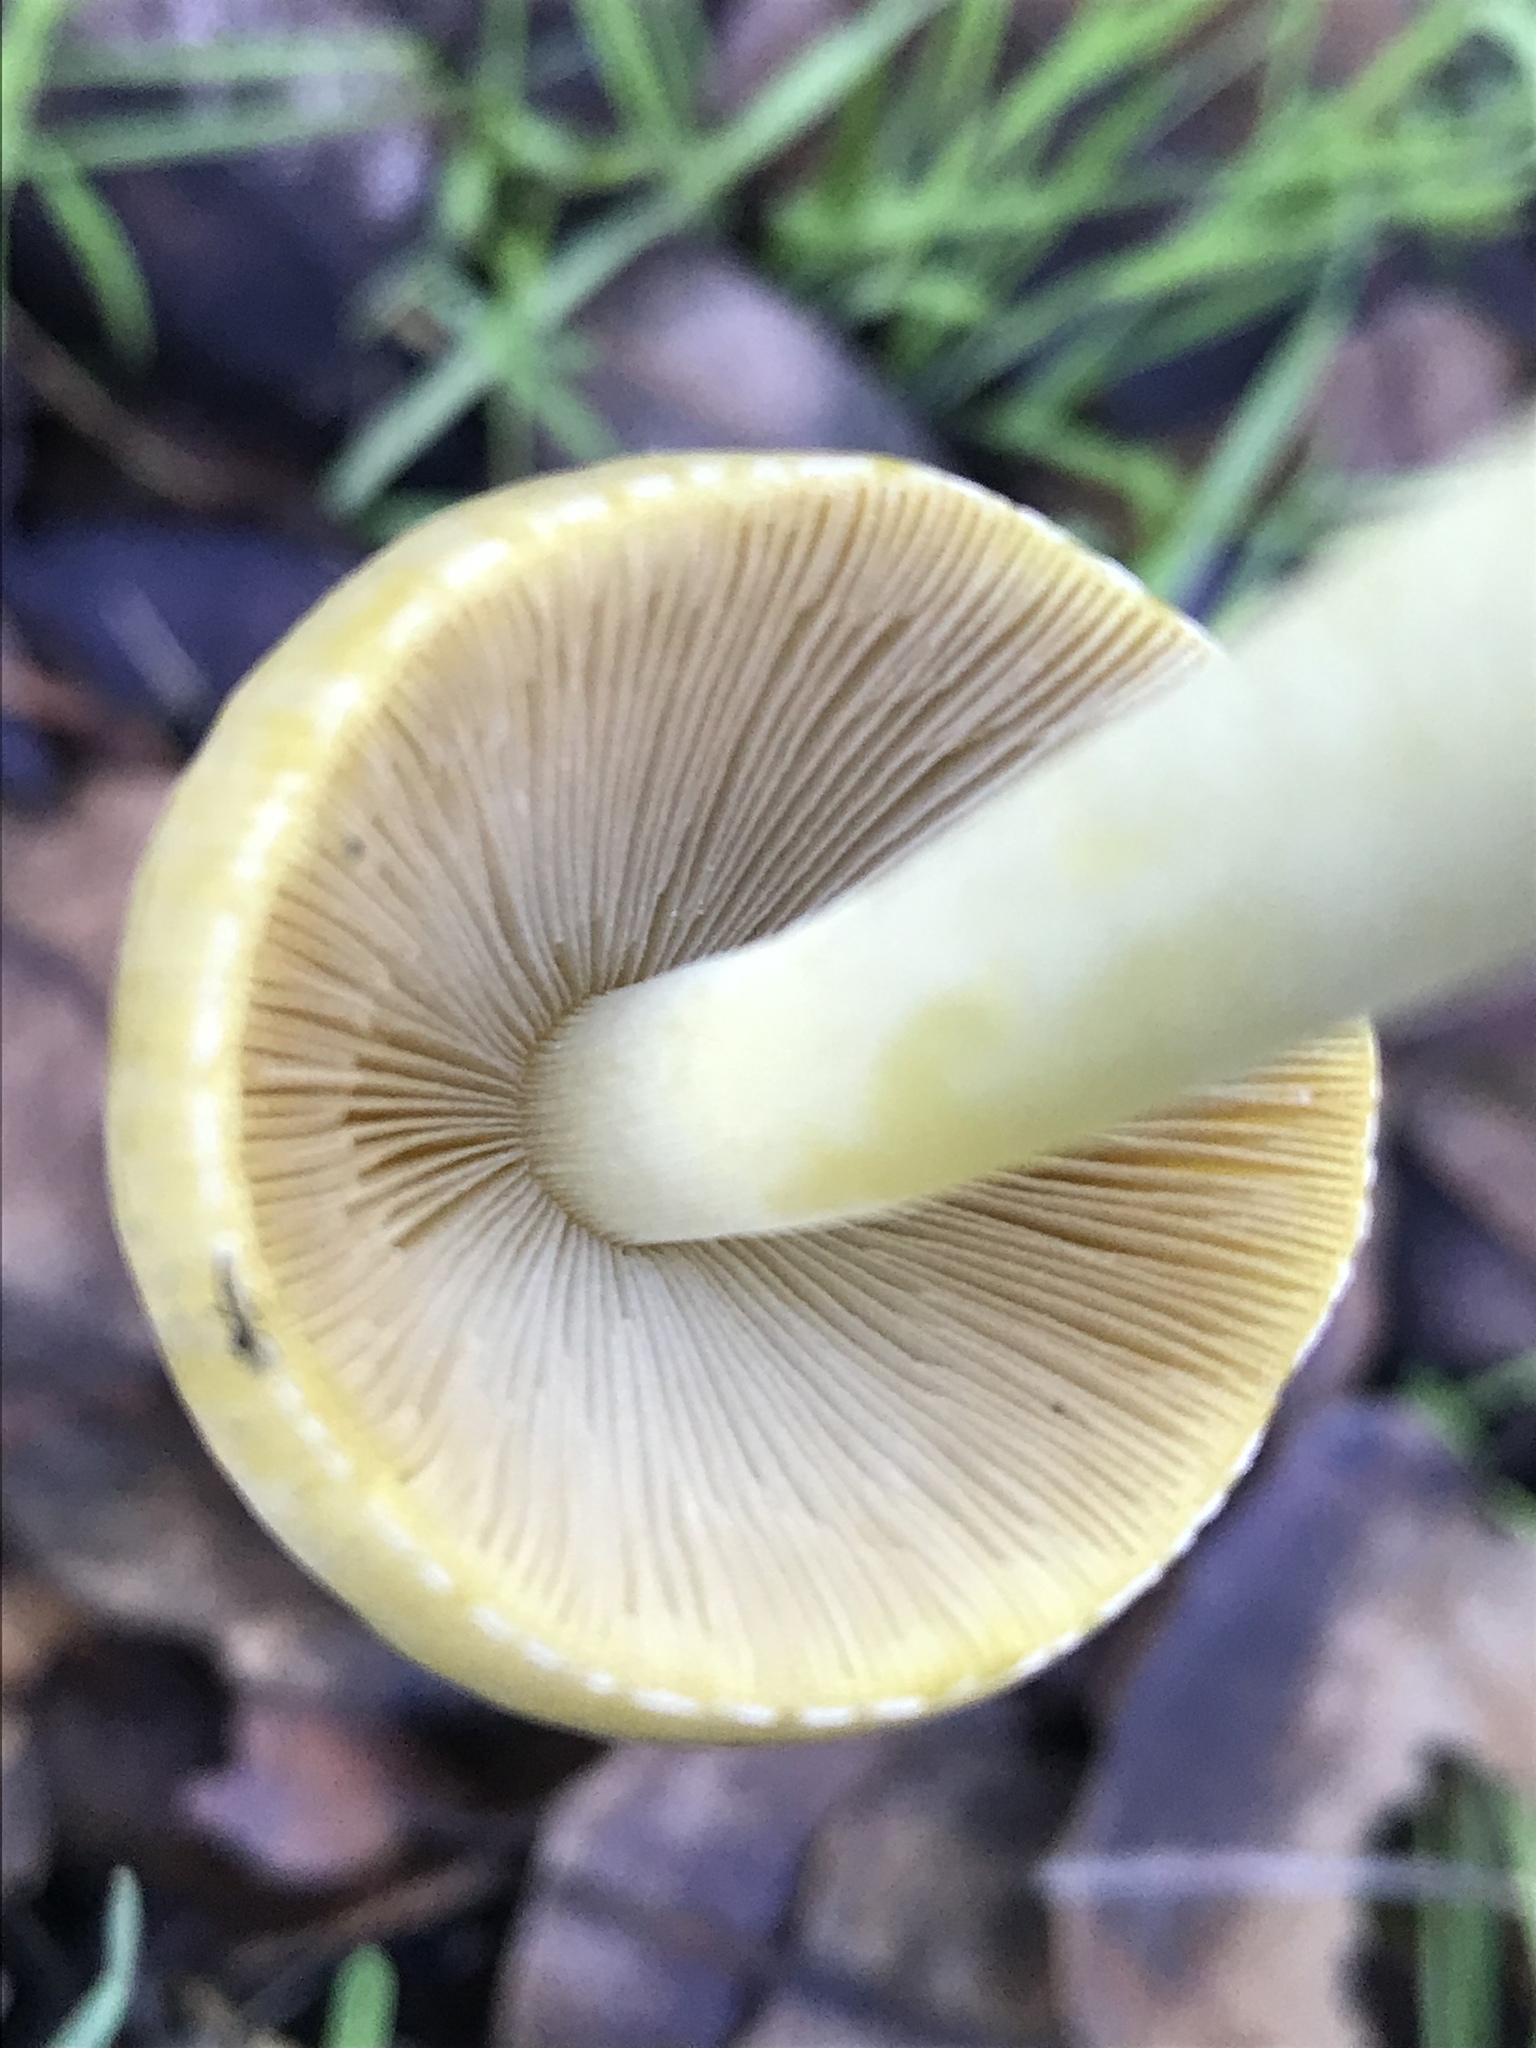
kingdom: Fungi
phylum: Basidiomycota
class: Agaricomycetes
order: Agaricales
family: Bolbitiaceae
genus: Bolbitius
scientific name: Bolbitius titubans
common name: Yellow fieldcap
